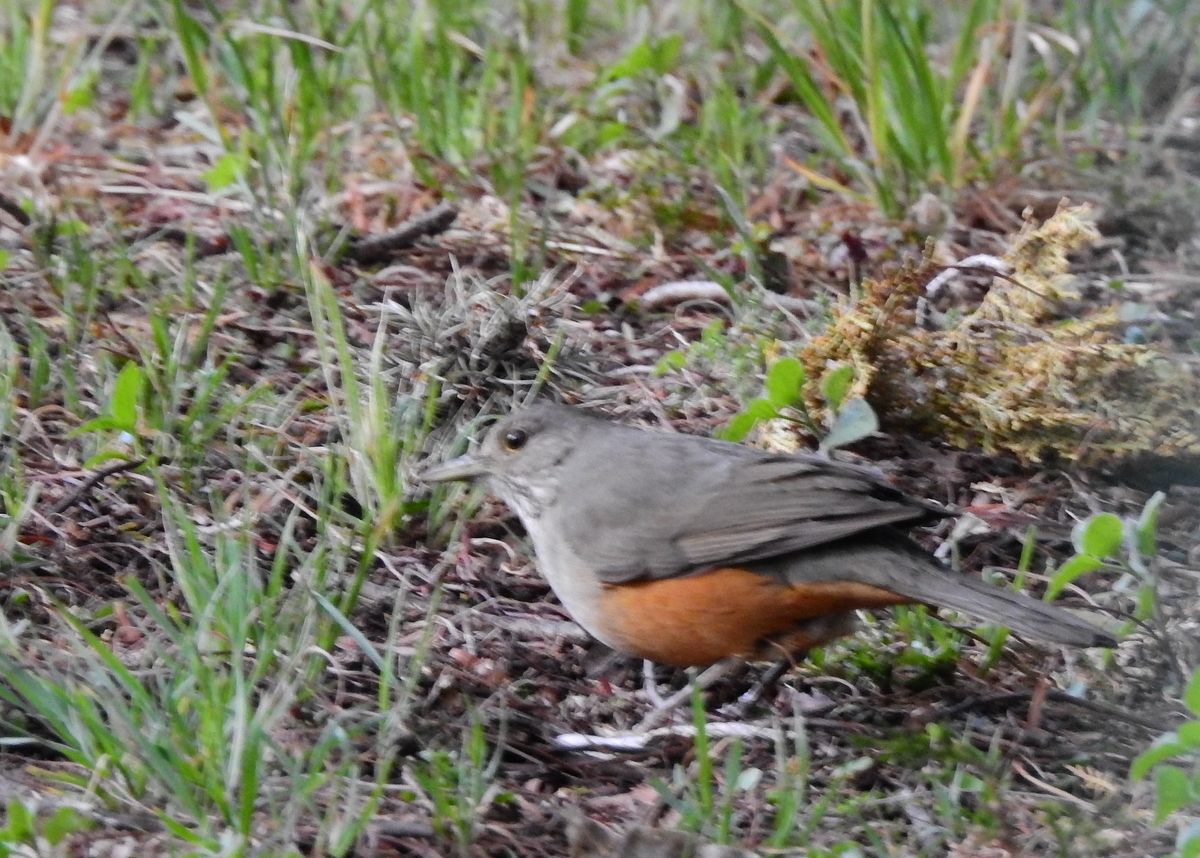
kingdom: Animalia
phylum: Chordata
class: Aves
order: Passeriformes
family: Turdidae
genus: Turdus
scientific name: Turdus rufiventris
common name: Rufous-bellied thrush
